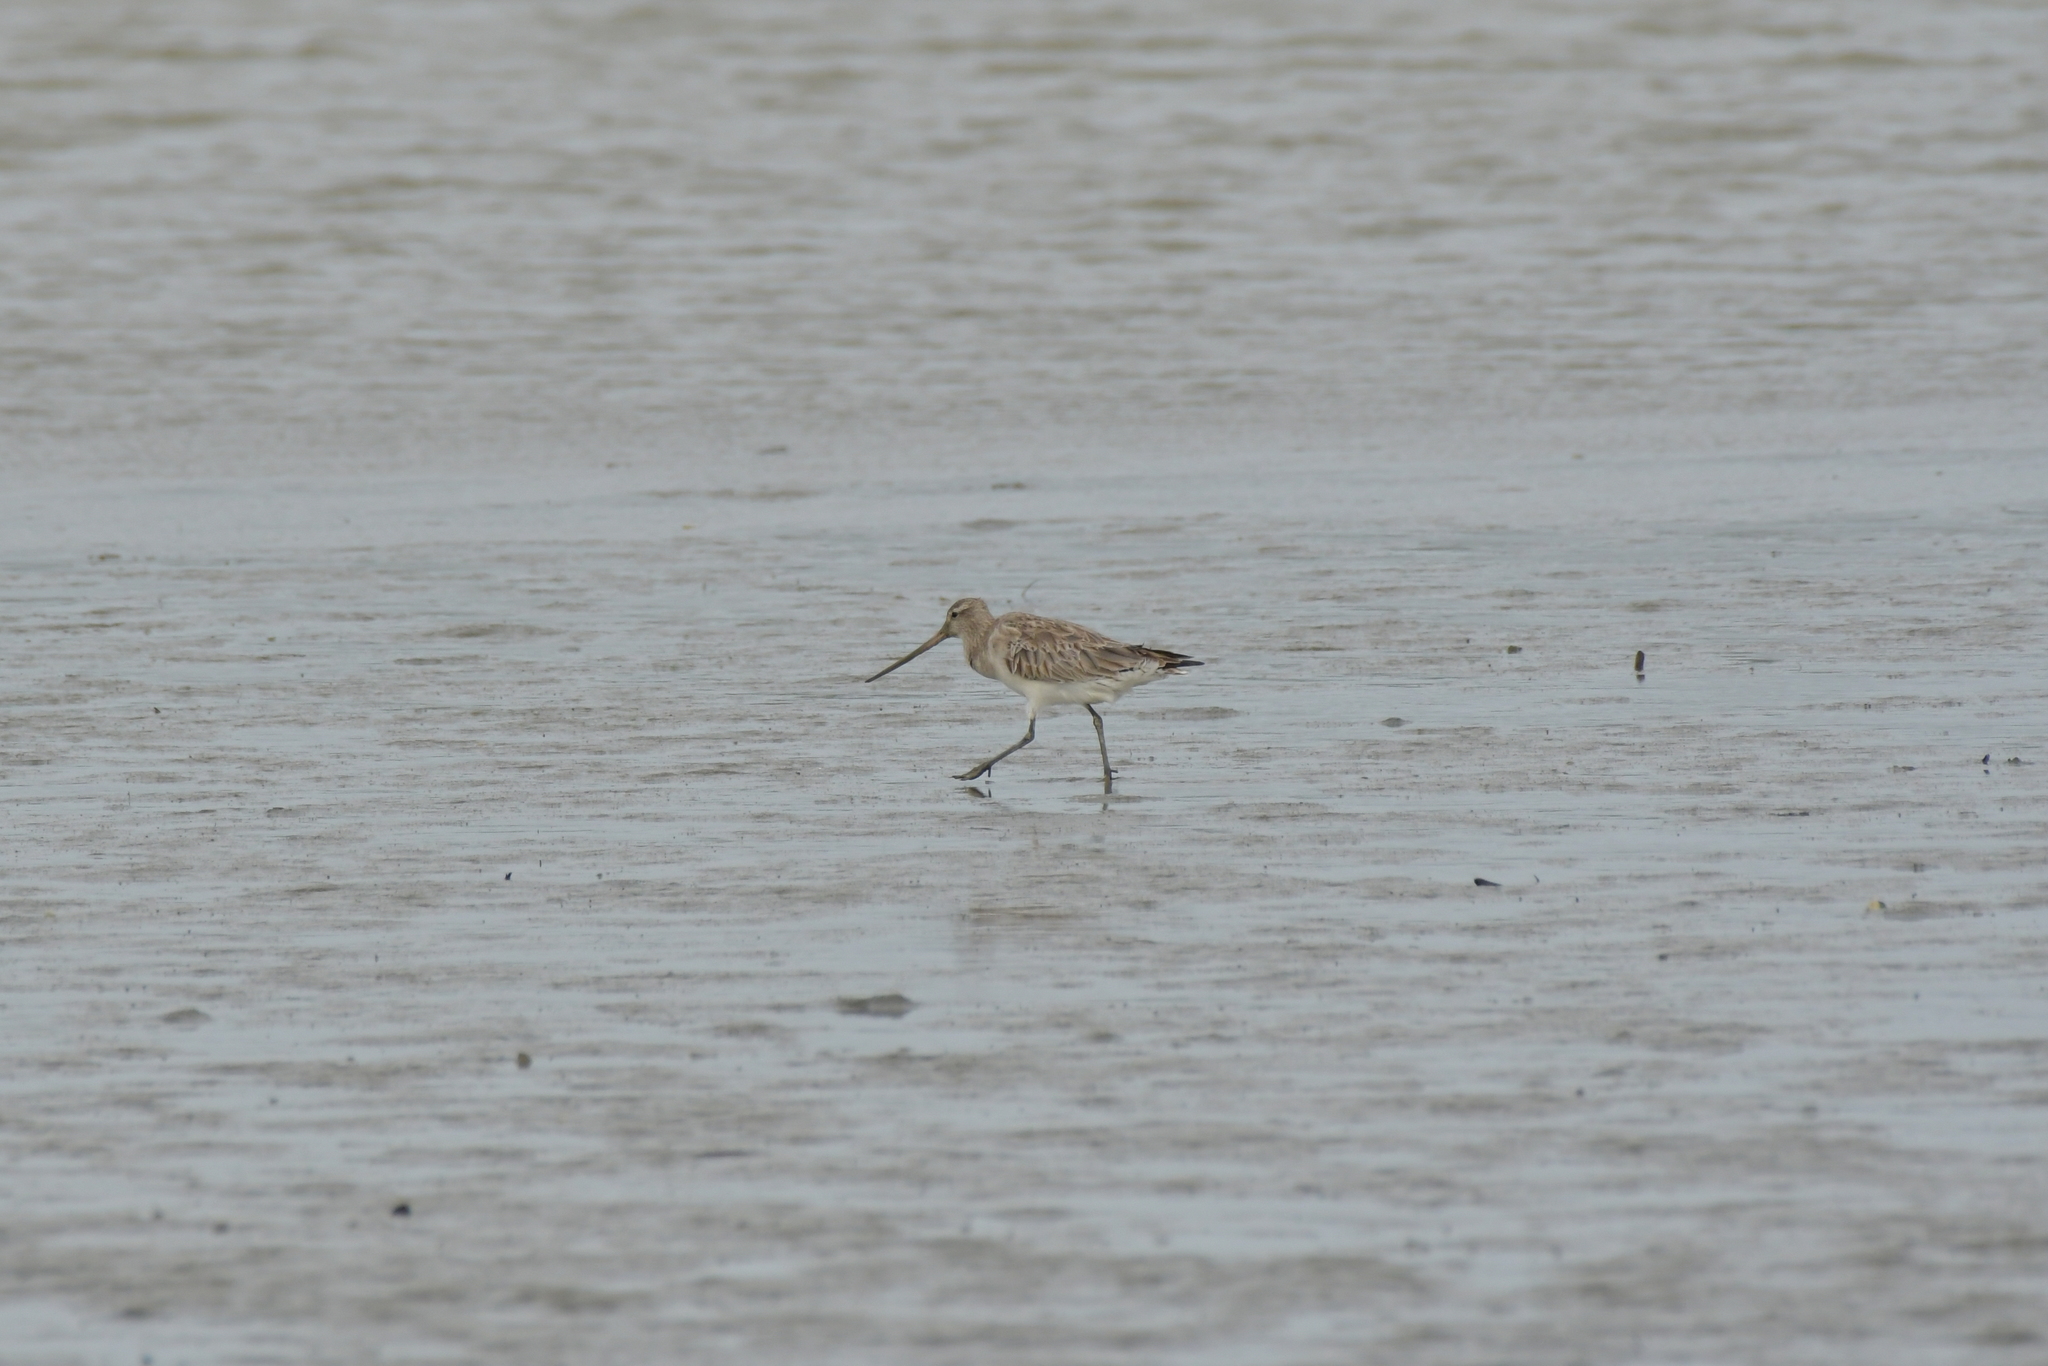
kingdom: Animalia
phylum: Chordata
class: Aves
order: Charadriiformes
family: Scolopacidae
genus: Limosa
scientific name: Limosa lapponica
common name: Bar-tailed godwit
